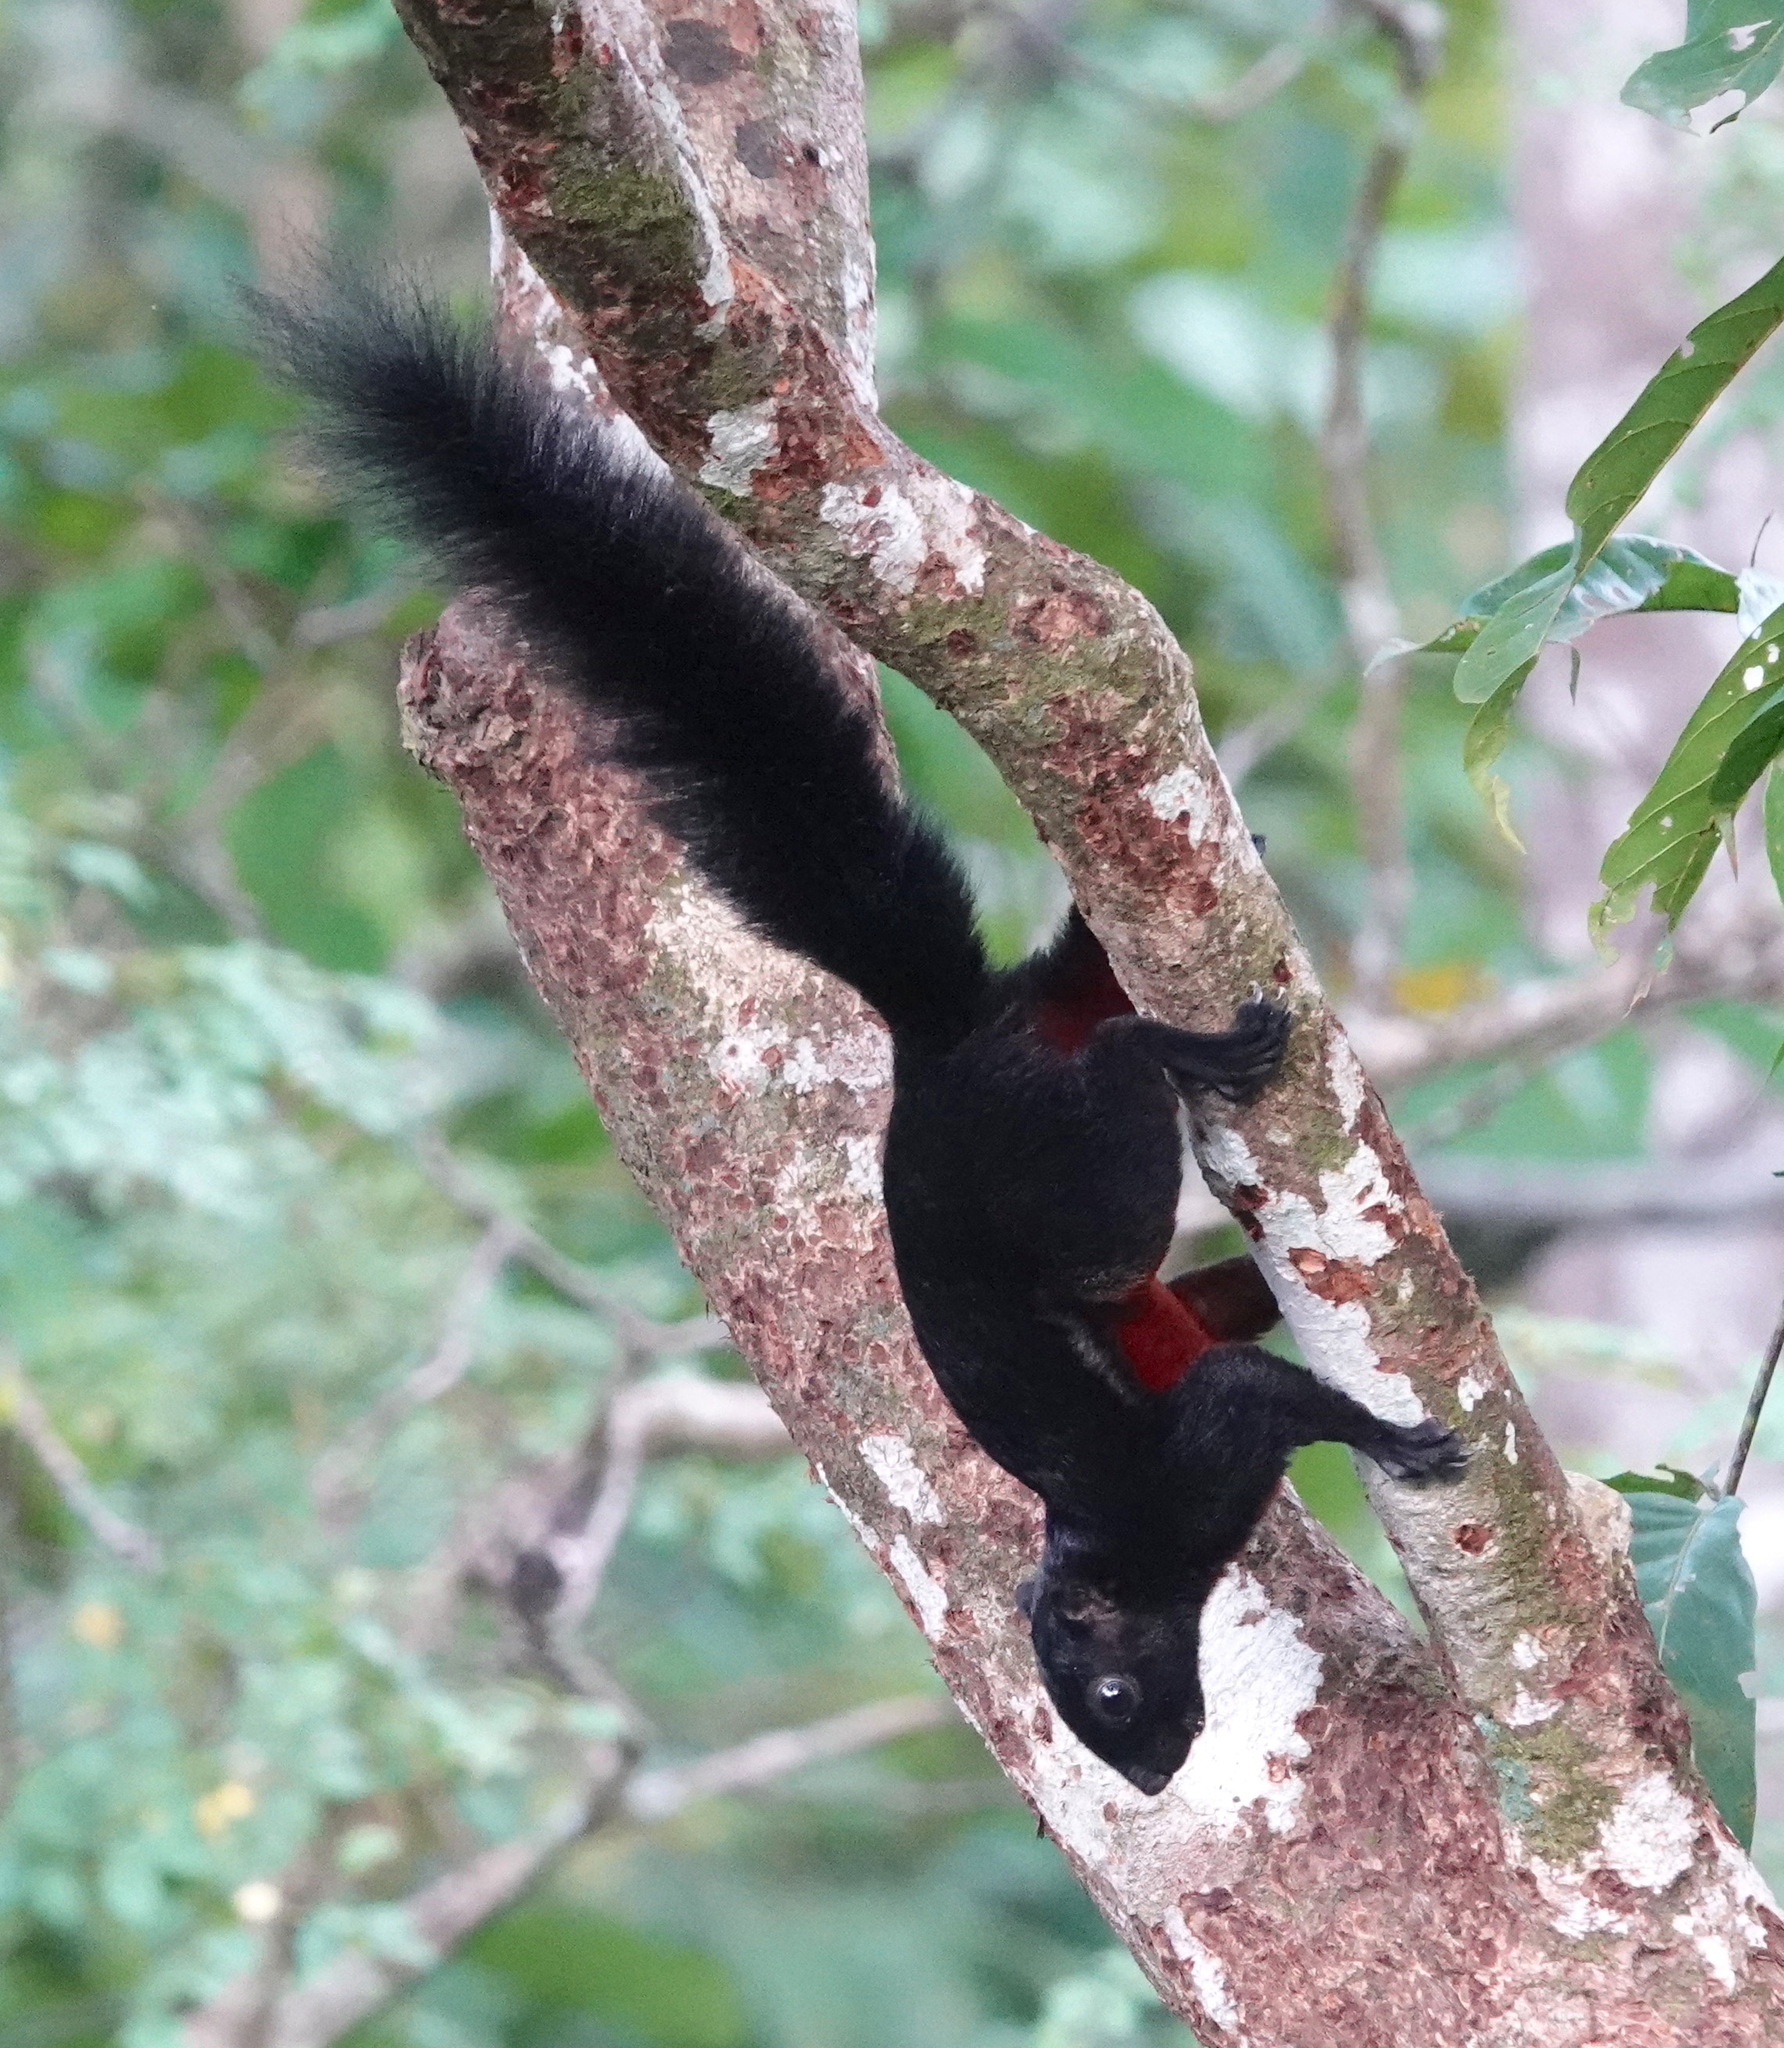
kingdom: Animalia
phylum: Chordata
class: Mammalia
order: Rodentia
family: Sciuridae
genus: Callosciurus
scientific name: Callosciurus prevostii
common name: Prevost's squirrel
